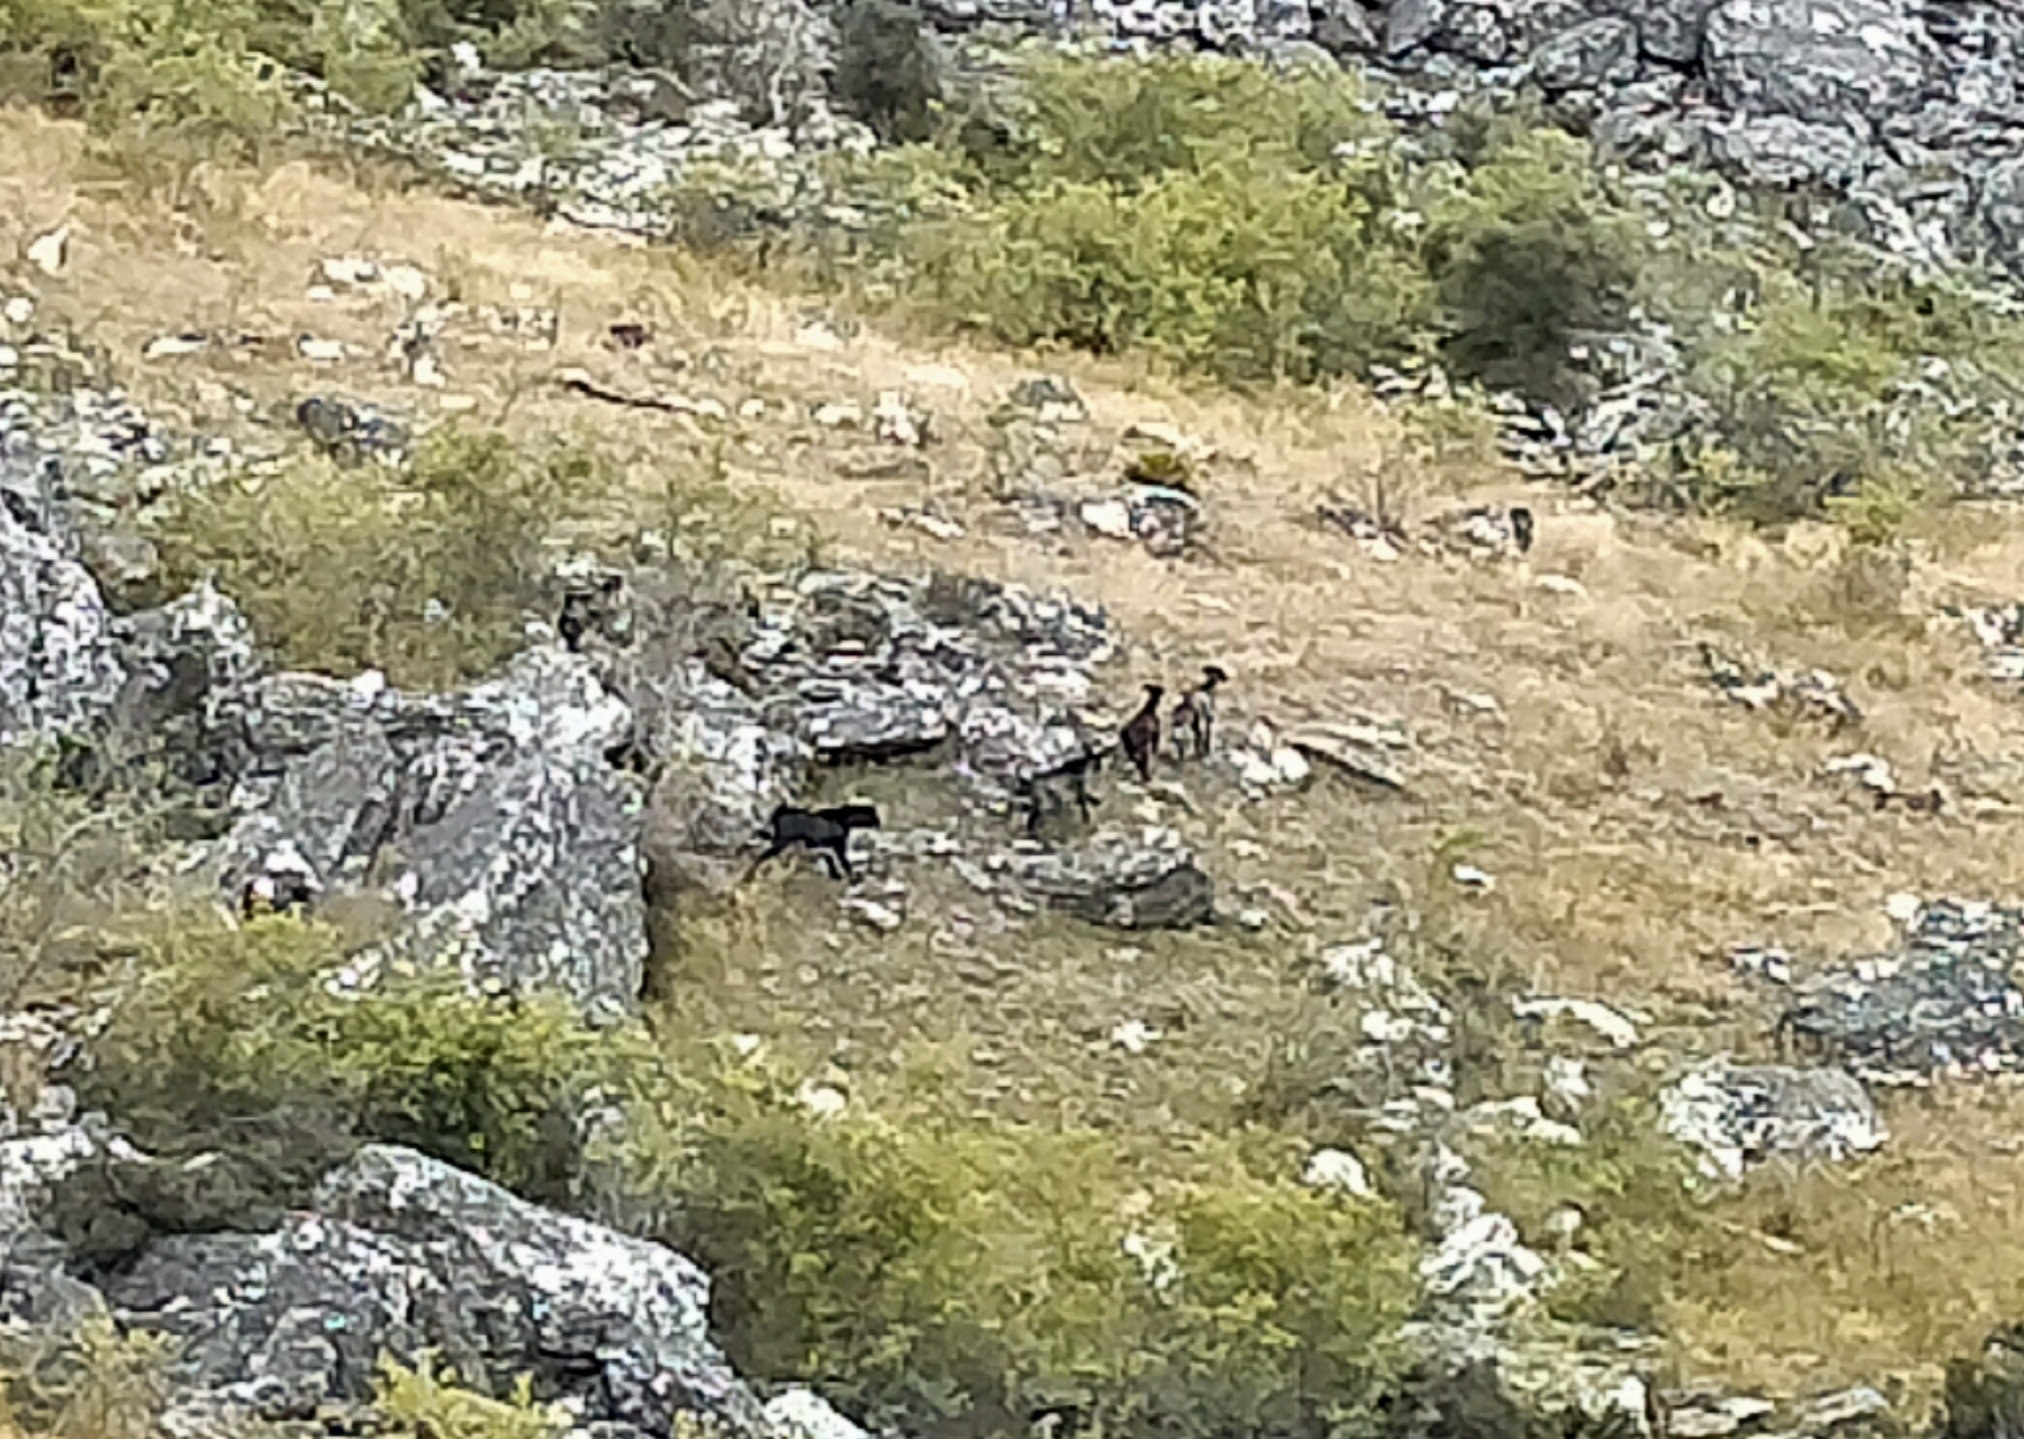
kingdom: Animalia
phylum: Chordata
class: Mammalia
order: Artiodactyla
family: Bovidae
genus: Capra
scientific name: Capra hircus
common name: Domestic goat
